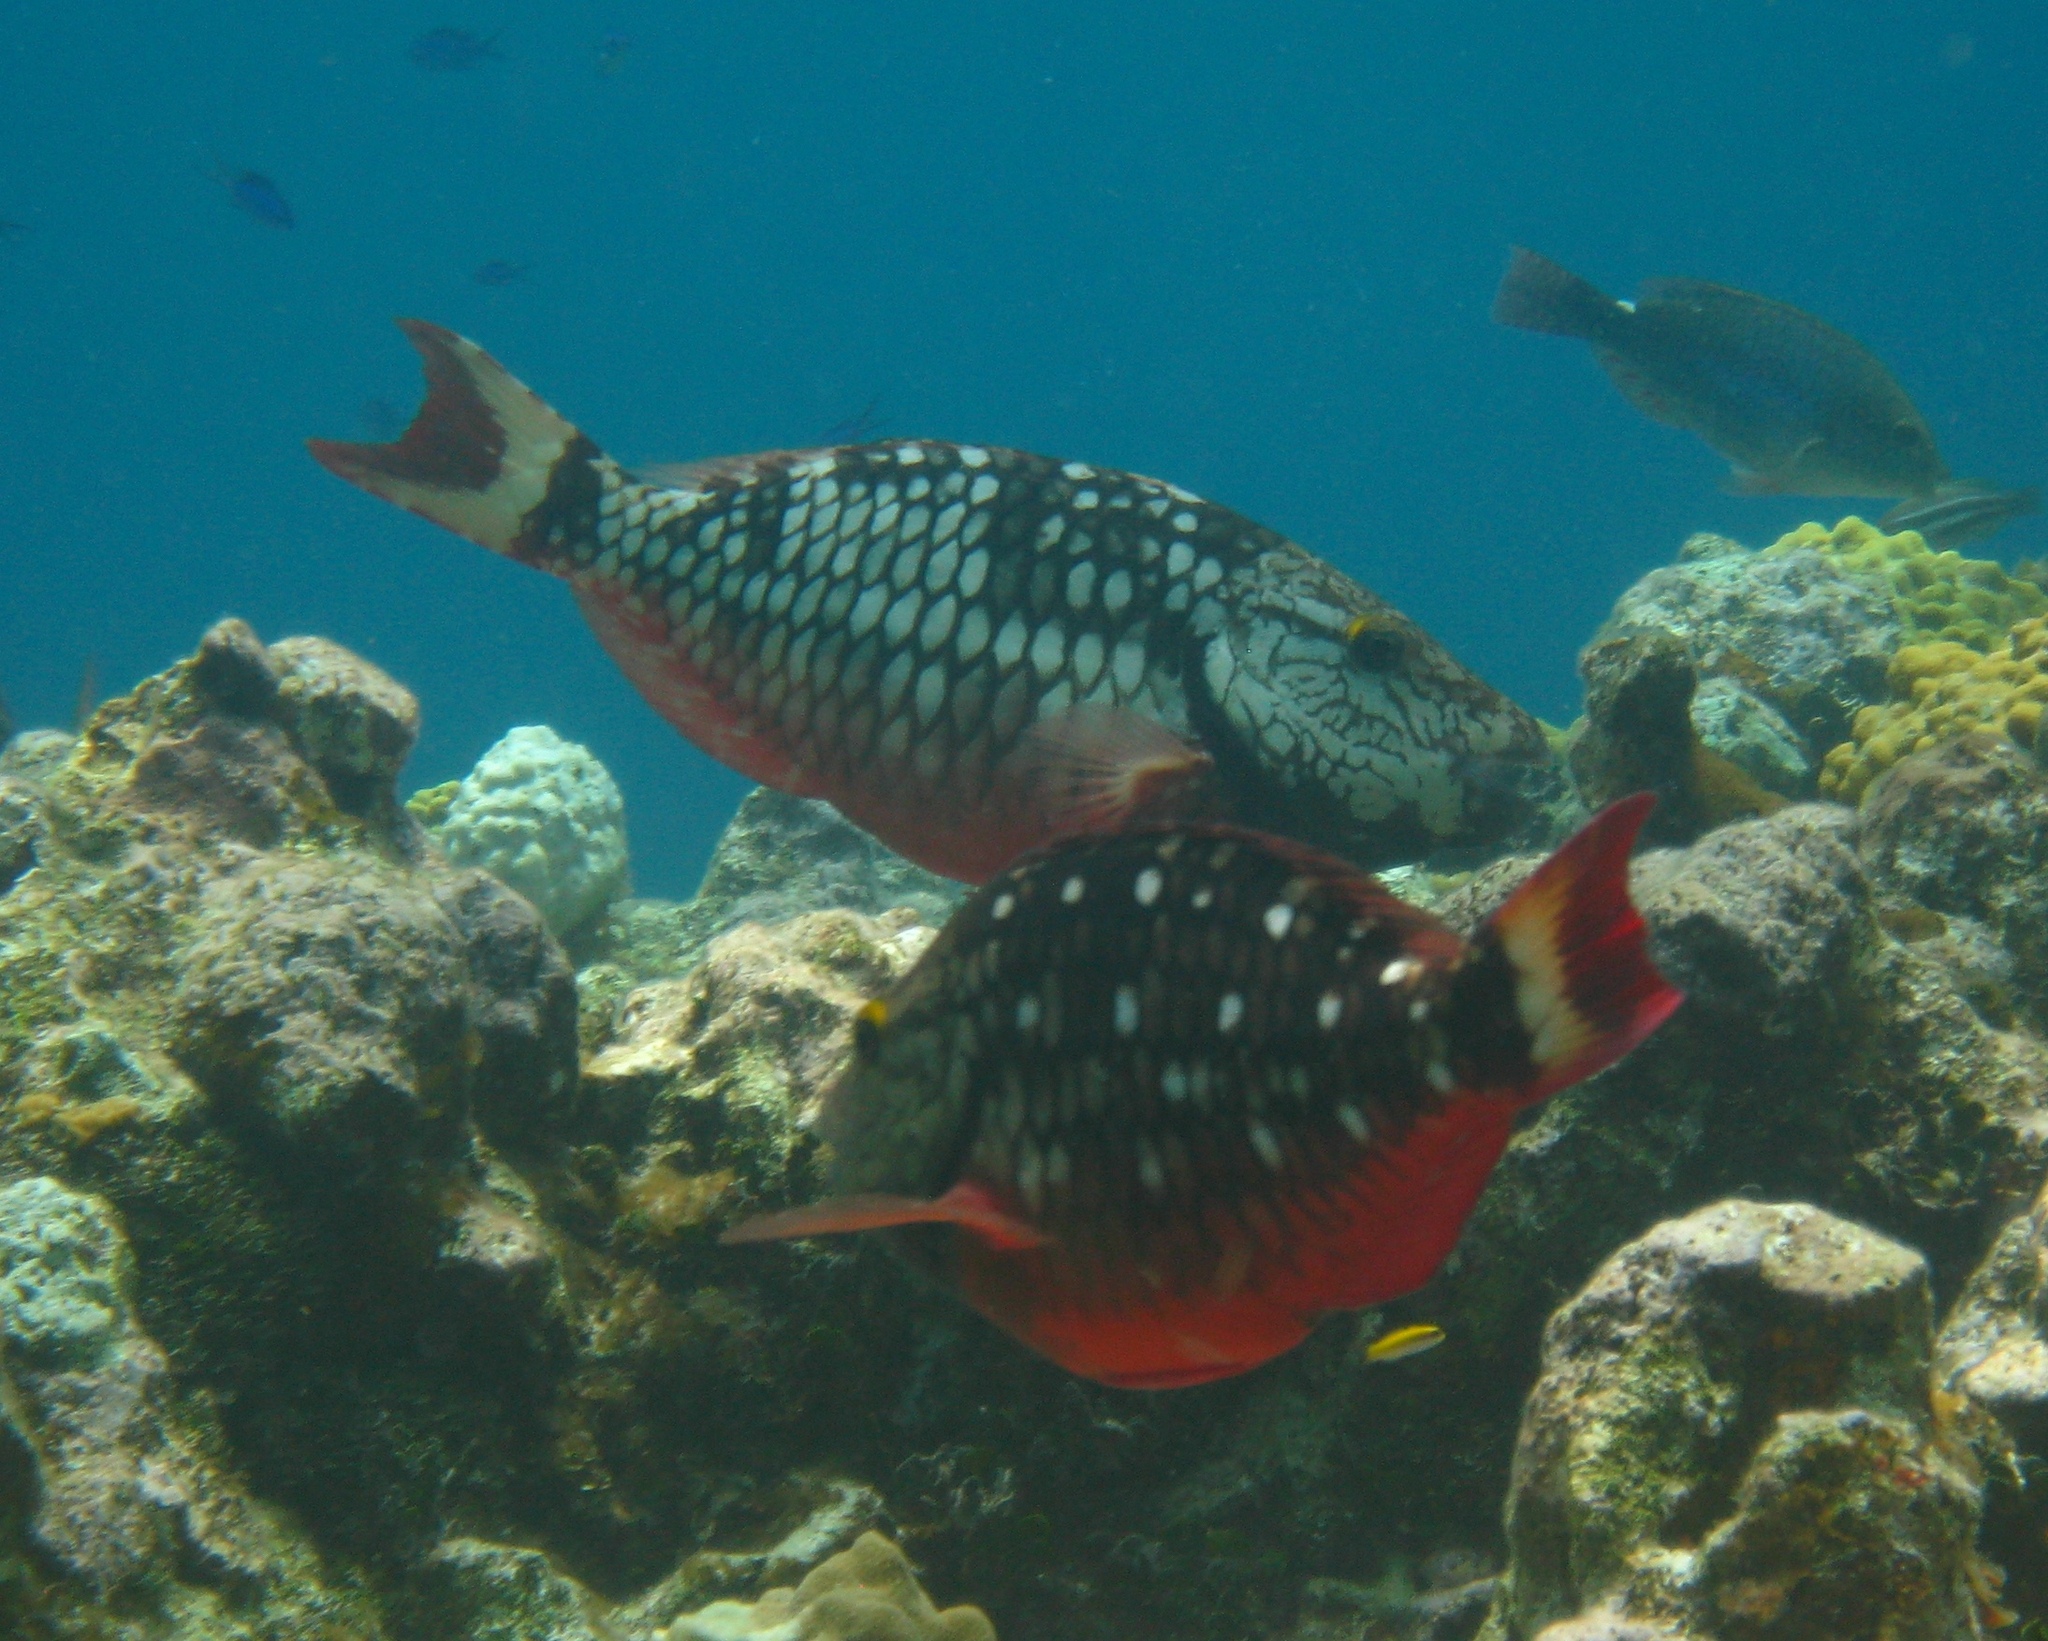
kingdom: Animalia
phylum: Chordata
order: Perciformes
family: Scaridae
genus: Sparisoma
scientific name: Sparisoma viride
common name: Stoplight parrotfish
